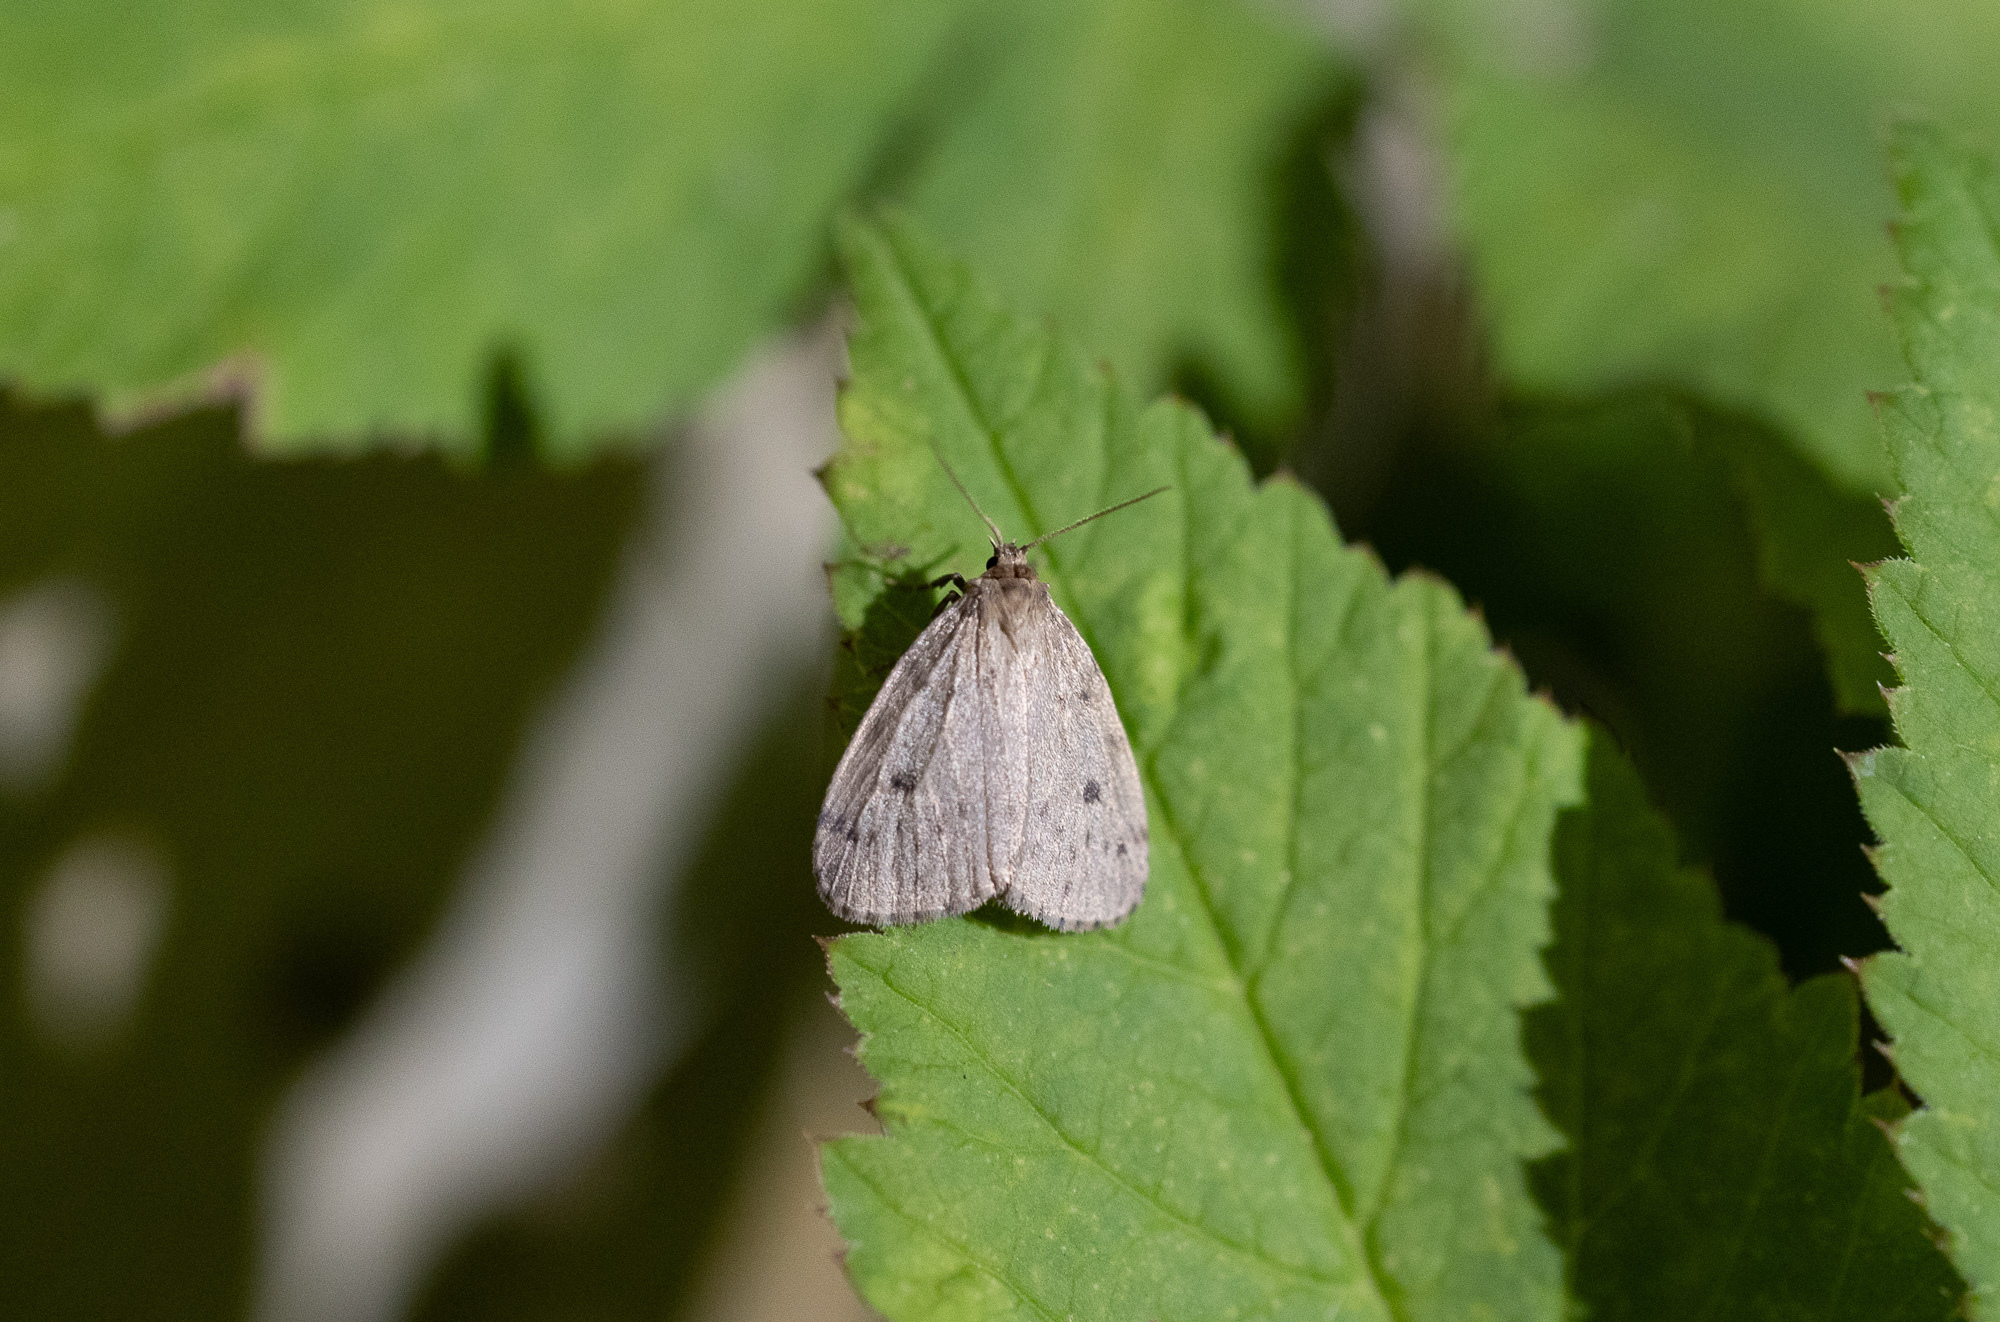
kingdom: Animalia
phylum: Arthropoda
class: Insecta
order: Lepidoptera
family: Erebidae
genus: Thumatha
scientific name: Thumatha senex
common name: Round-winged muslin
